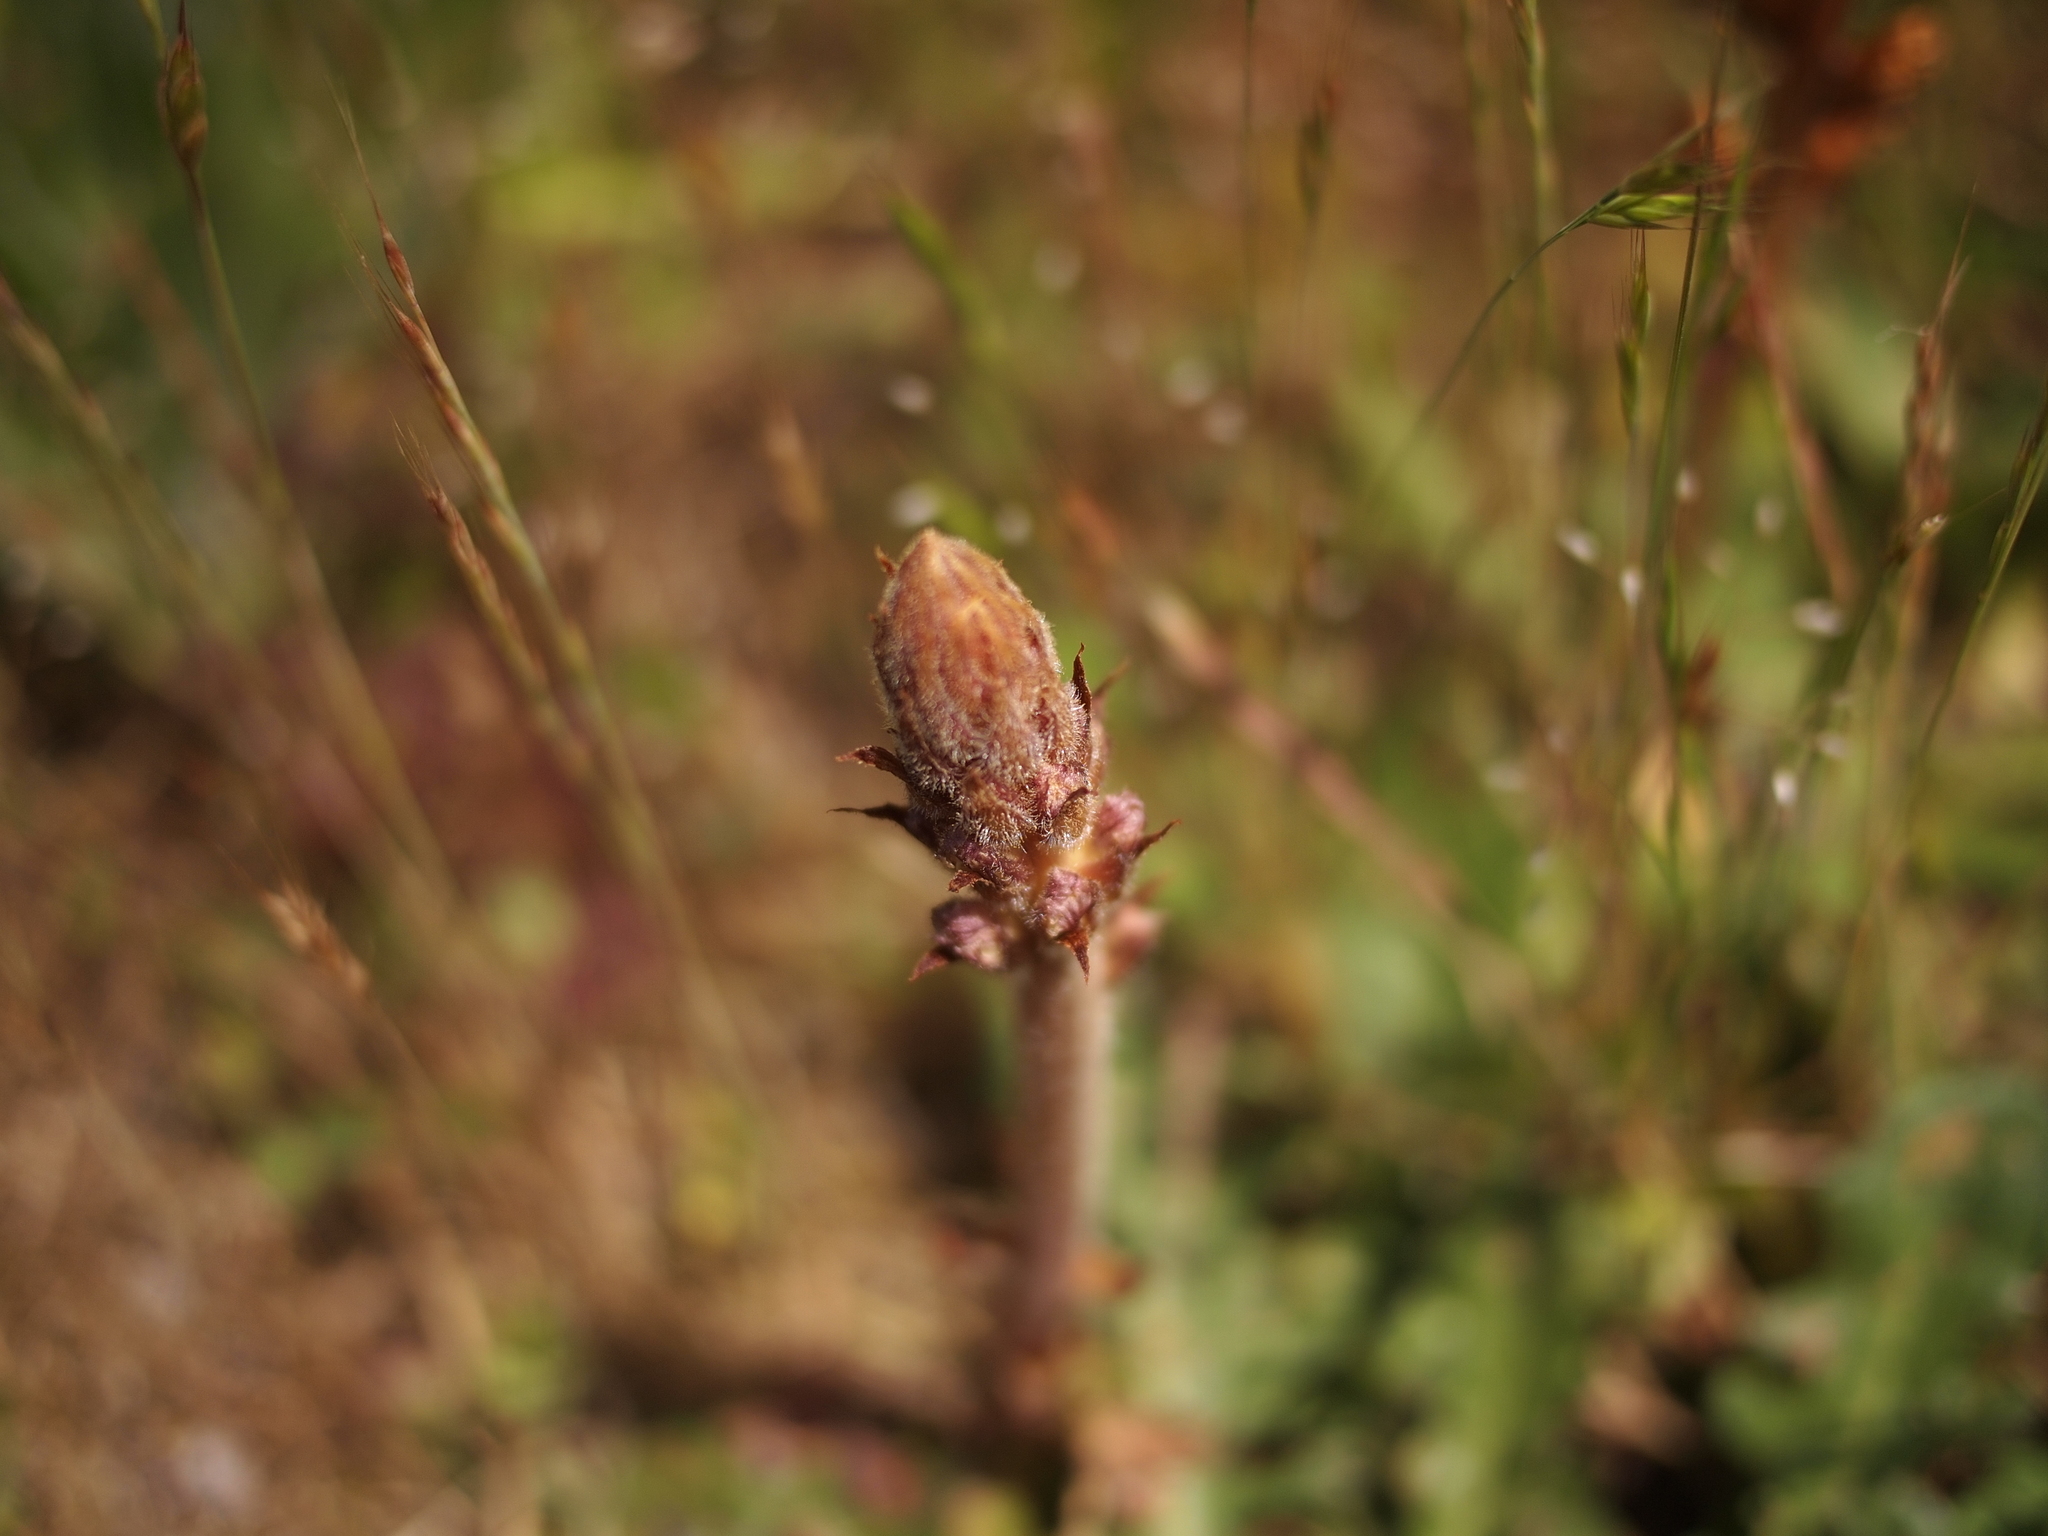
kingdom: Plantae
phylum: Tracheophyta
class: Magnoliopsida
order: Lamiales
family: Orobanchaceae
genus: Orobanche
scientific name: Orobanche minor
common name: Common broomrape
